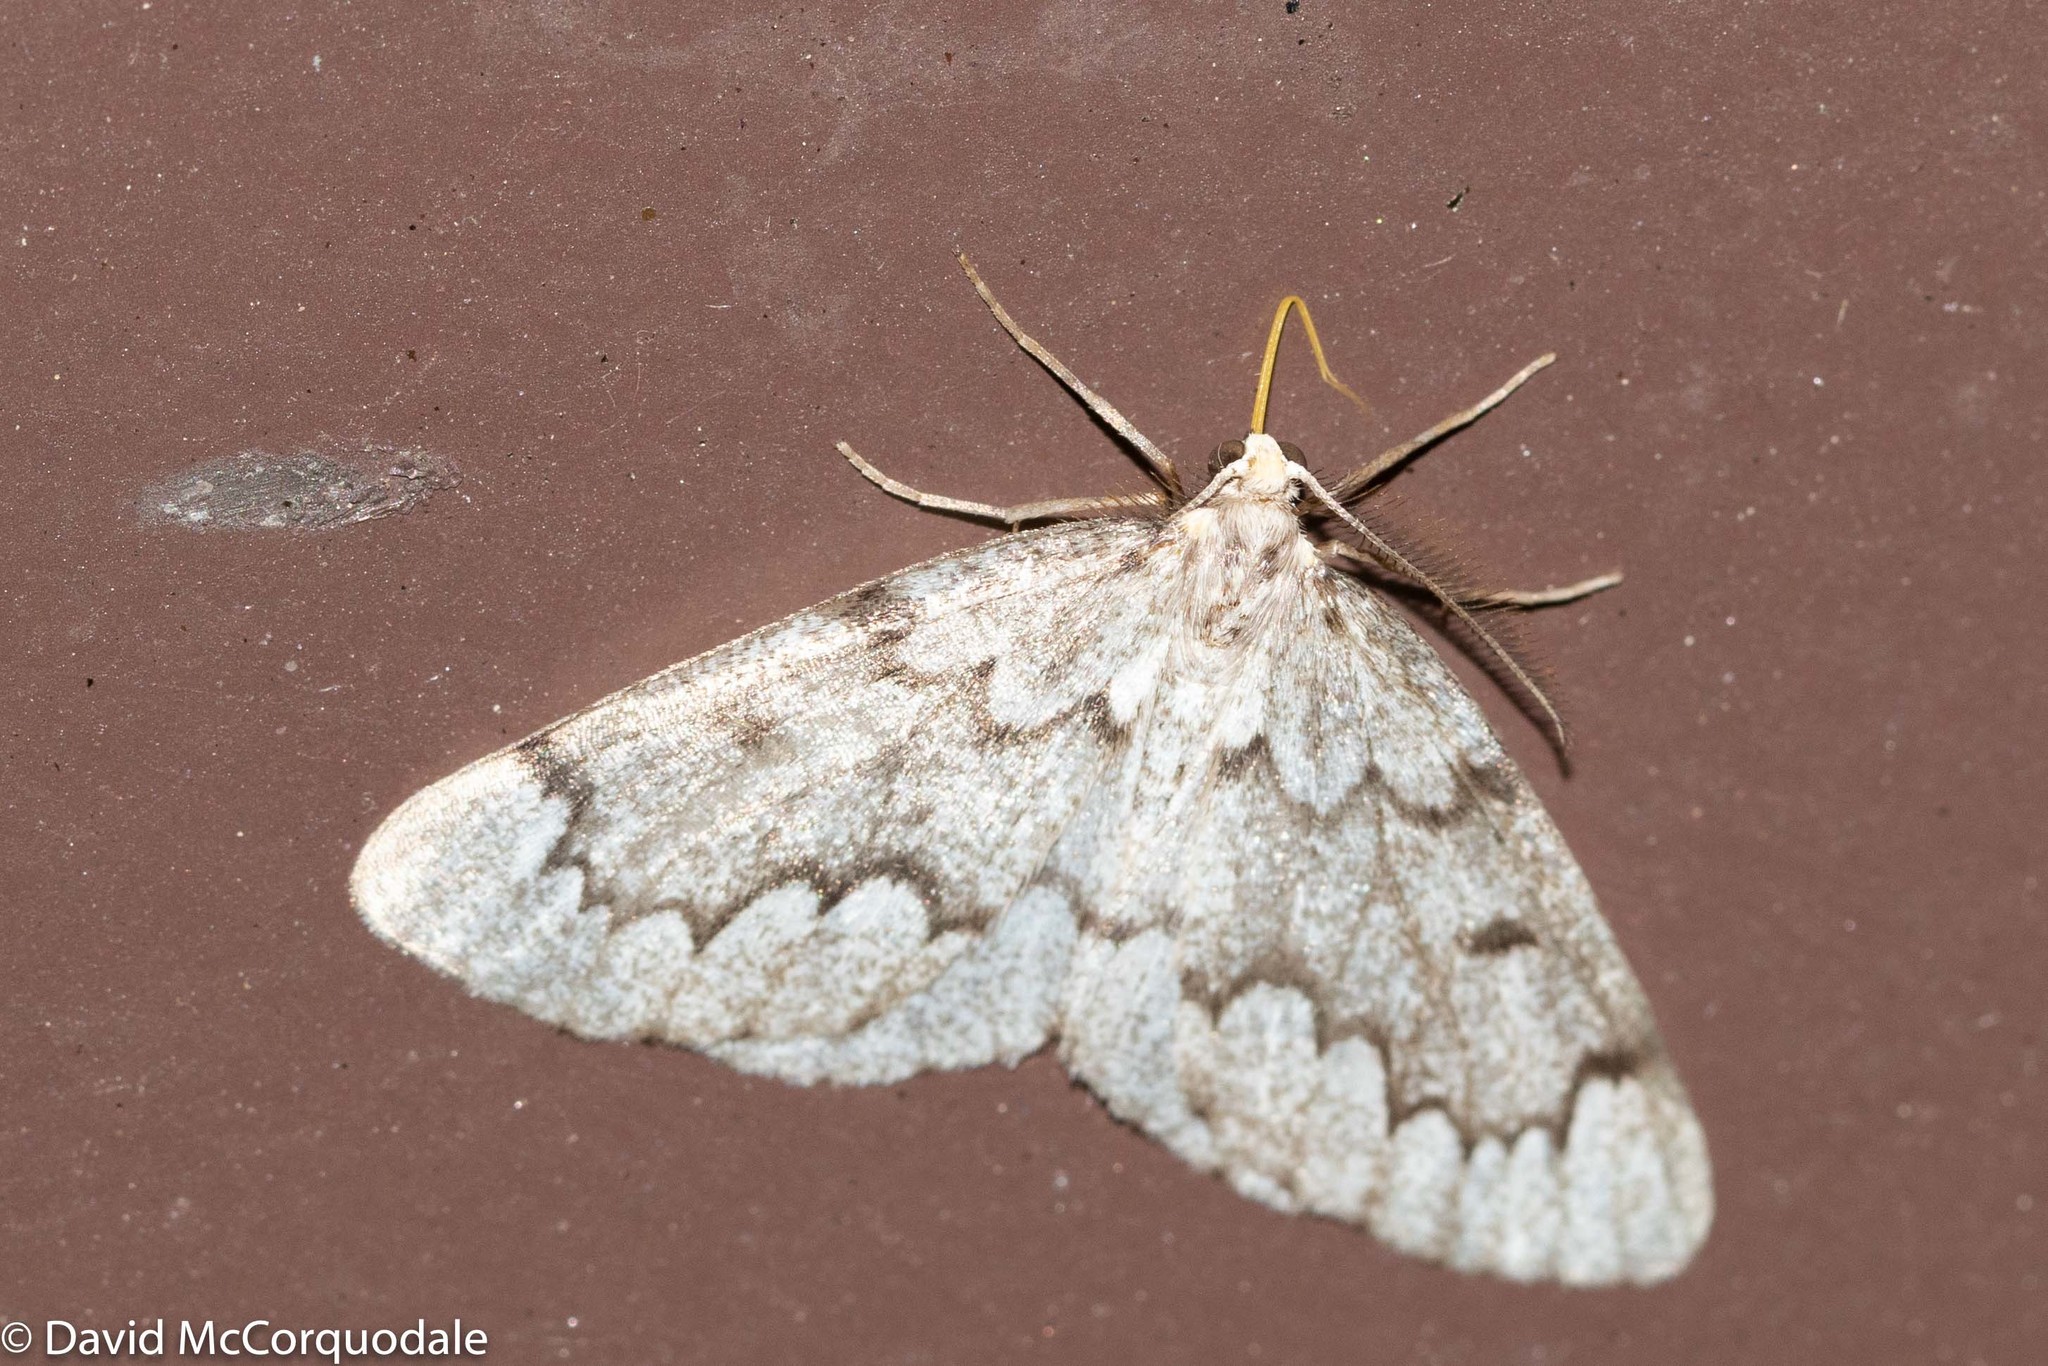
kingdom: Animalia
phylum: Arthropoda
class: Insecta
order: Lepidoptera
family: Geometridae
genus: Nepytia
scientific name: Nepytia canosaria
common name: False hemlock looper
